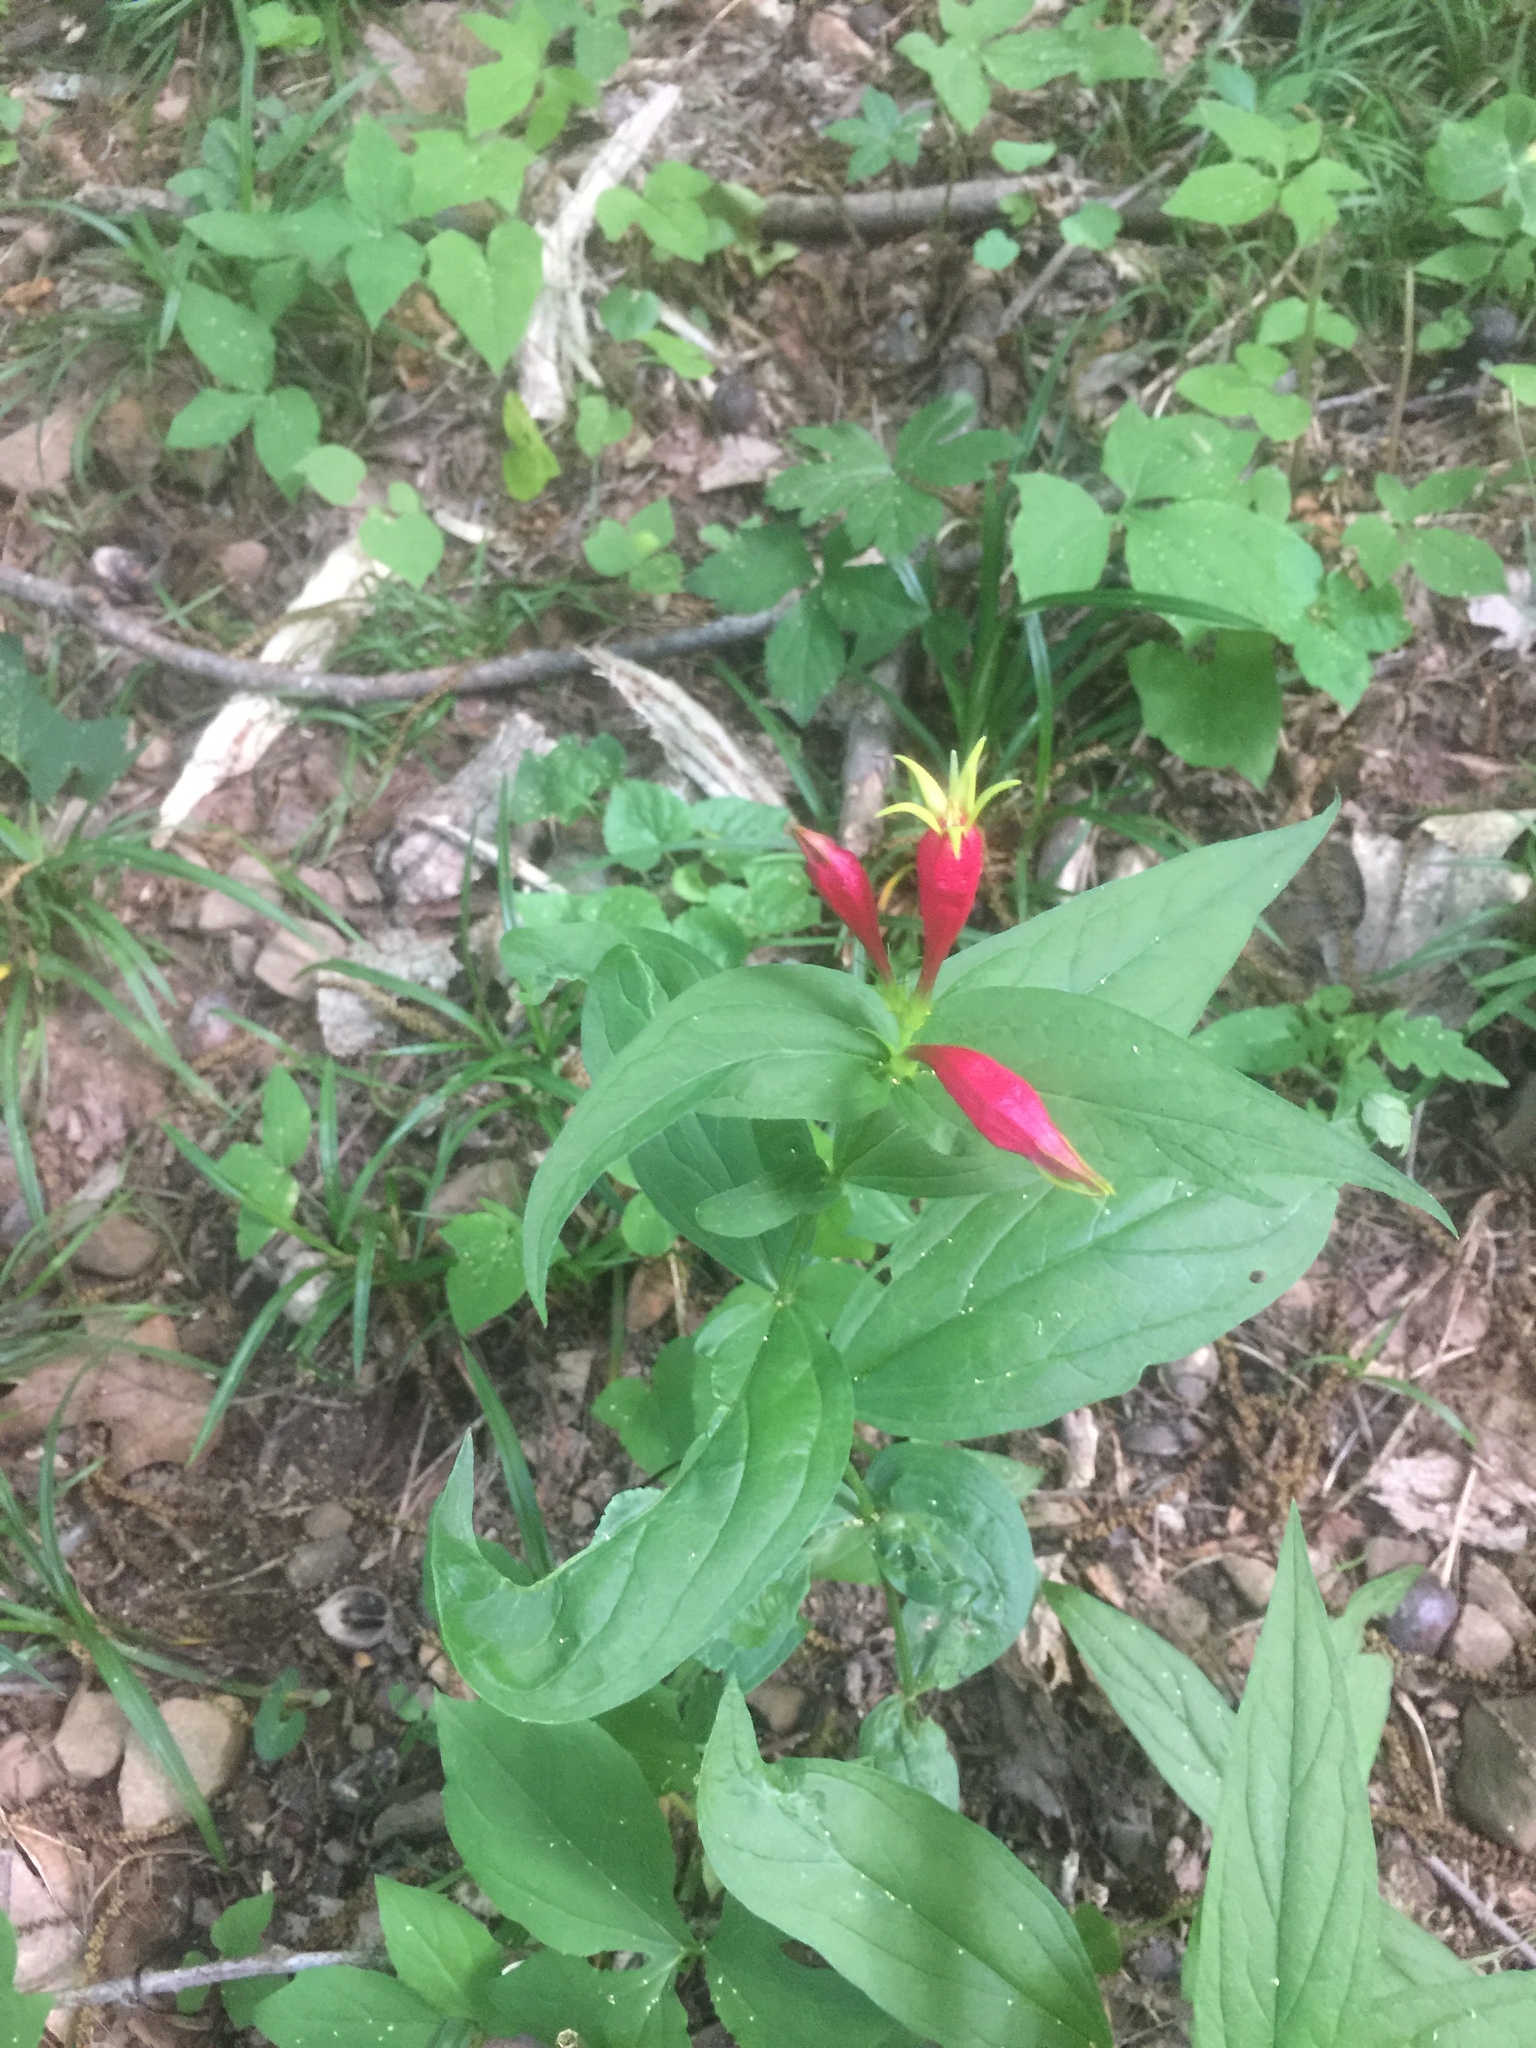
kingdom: Plantae
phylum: Tracheophyta
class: Magnoliopsida
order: Gentianales
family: Loganiaceae
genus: Spigelia
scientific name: Spigelia marilandica
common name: Indian-pink
